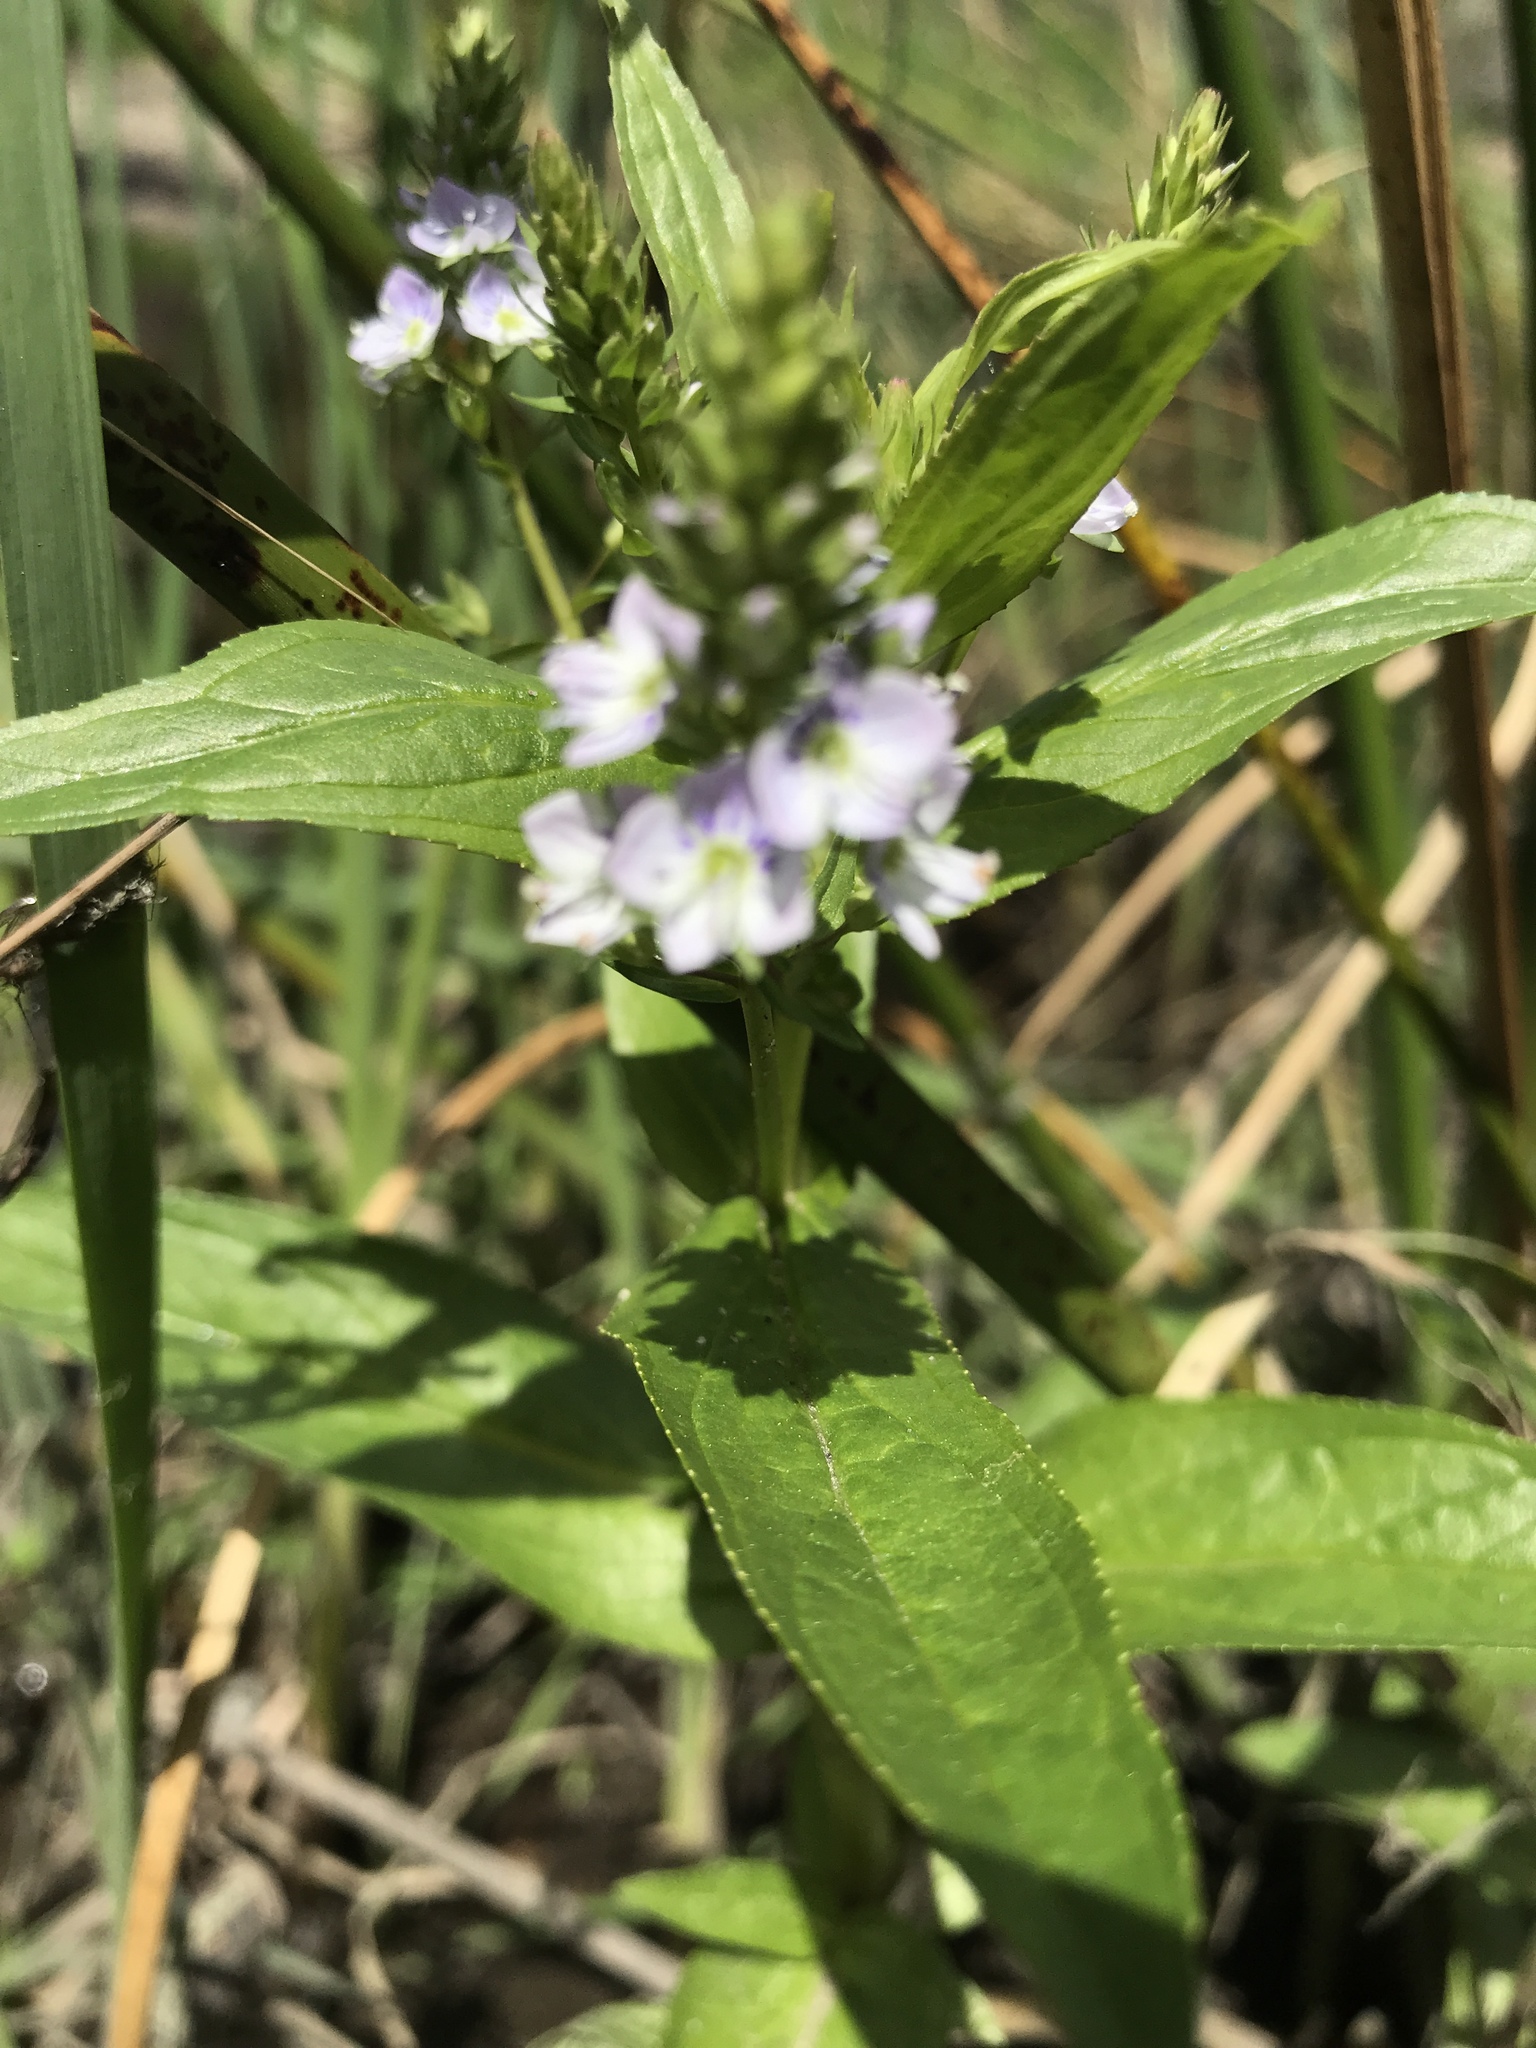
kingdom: Plantae
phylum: Tracheophyta
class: Magnoliopsida
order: Lamiales
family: Plantaginaceae
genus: Veronica
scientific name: Veronica anagallis-aquatica
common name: Water speedwell
